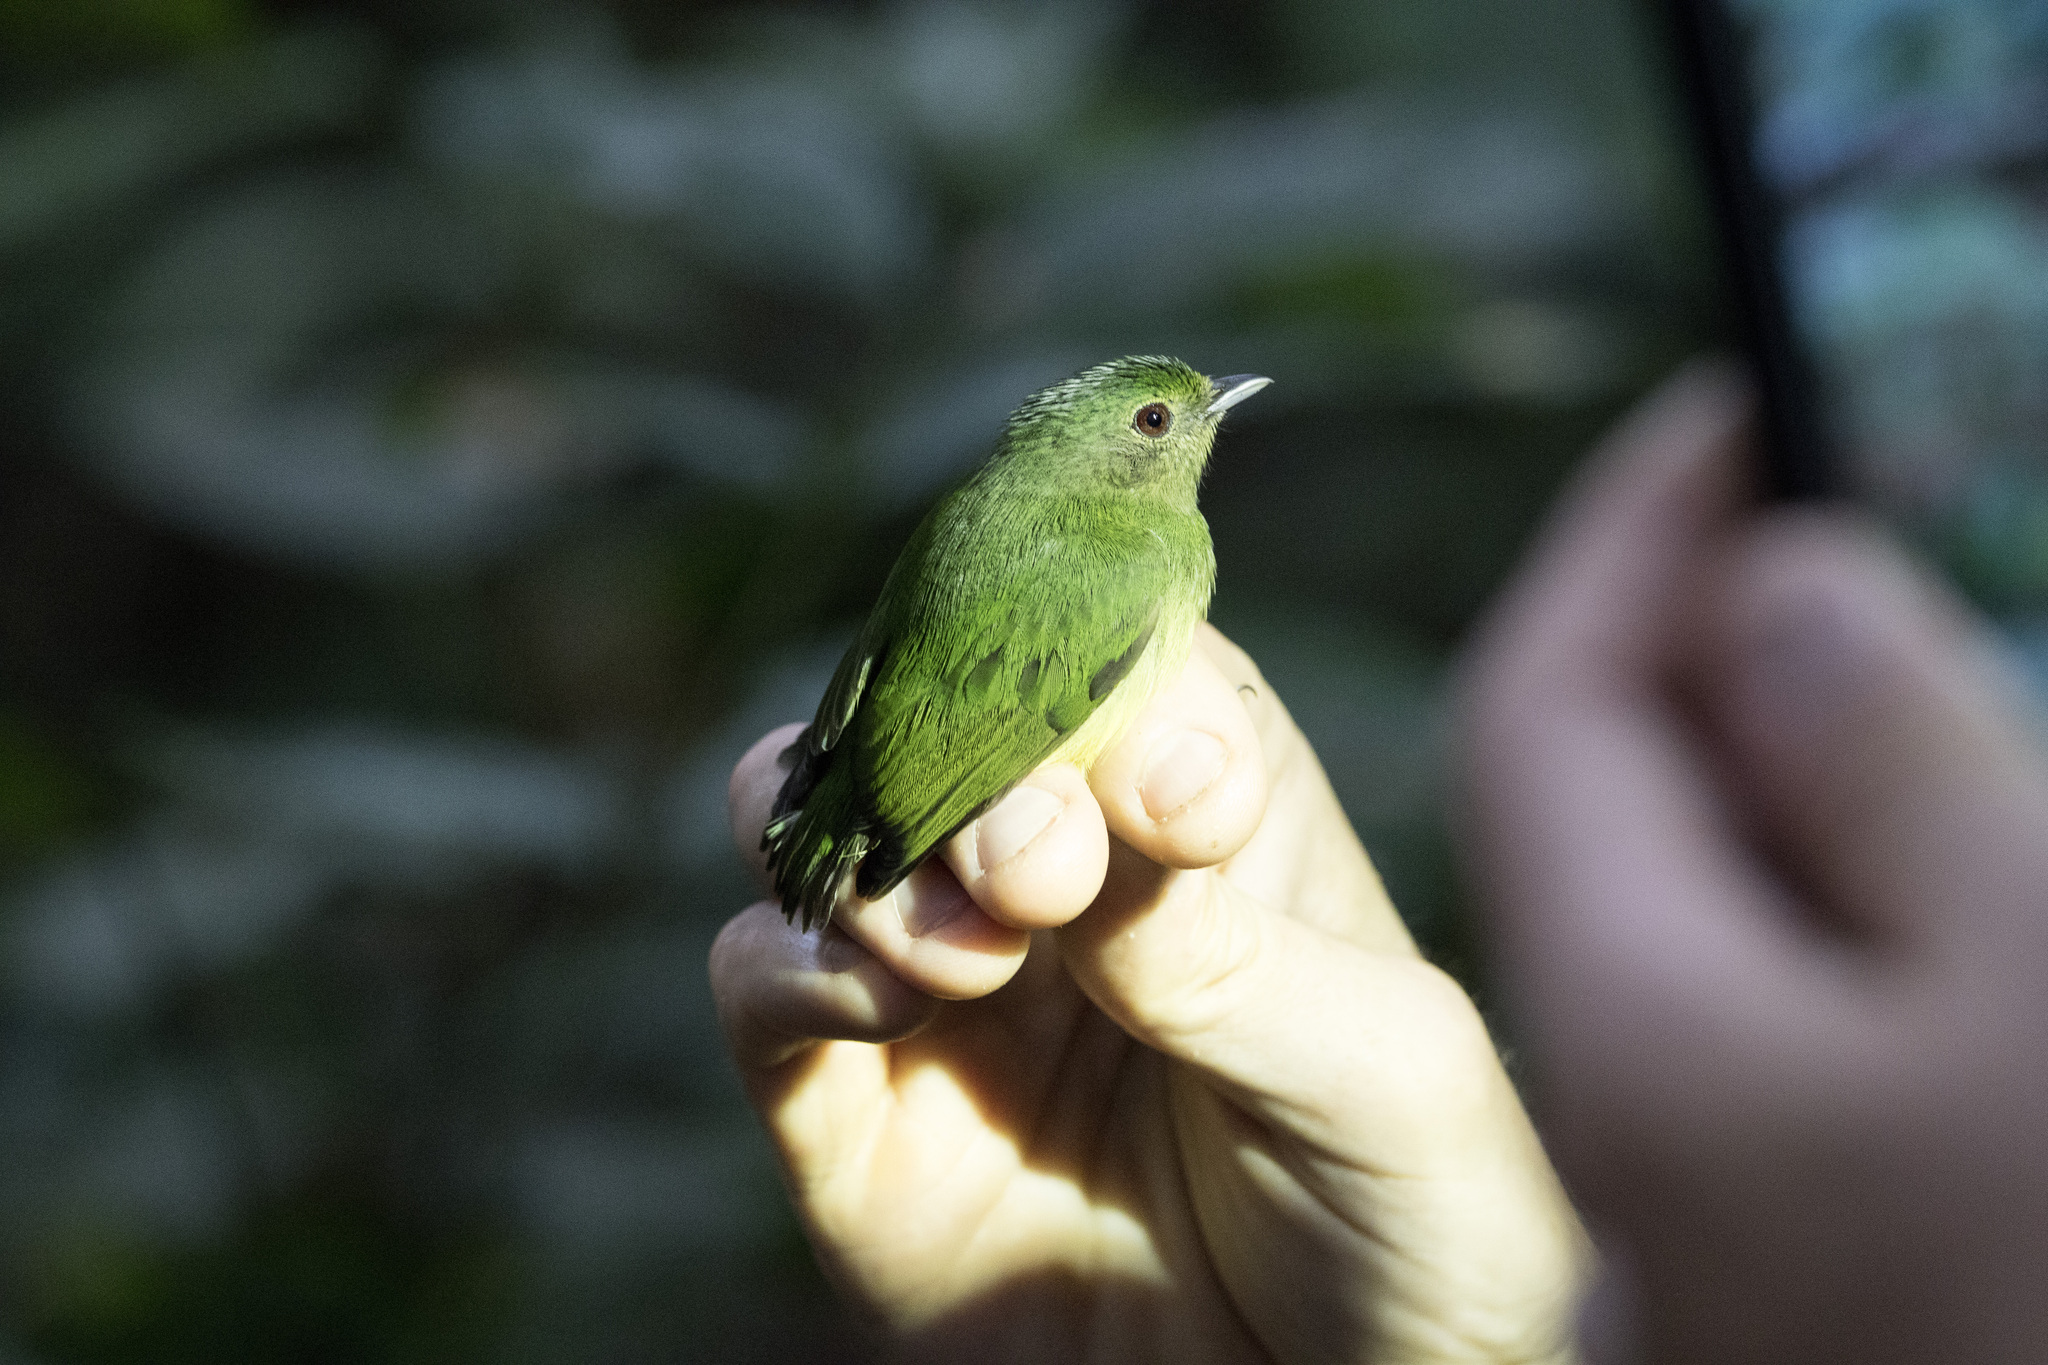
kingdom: Animalia
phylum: Chordata
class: Aves
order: Passeriformes
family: Pipridae
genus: Lepidothrix
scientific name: Lepidothrix coronata
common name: Blue-crowned manakin
